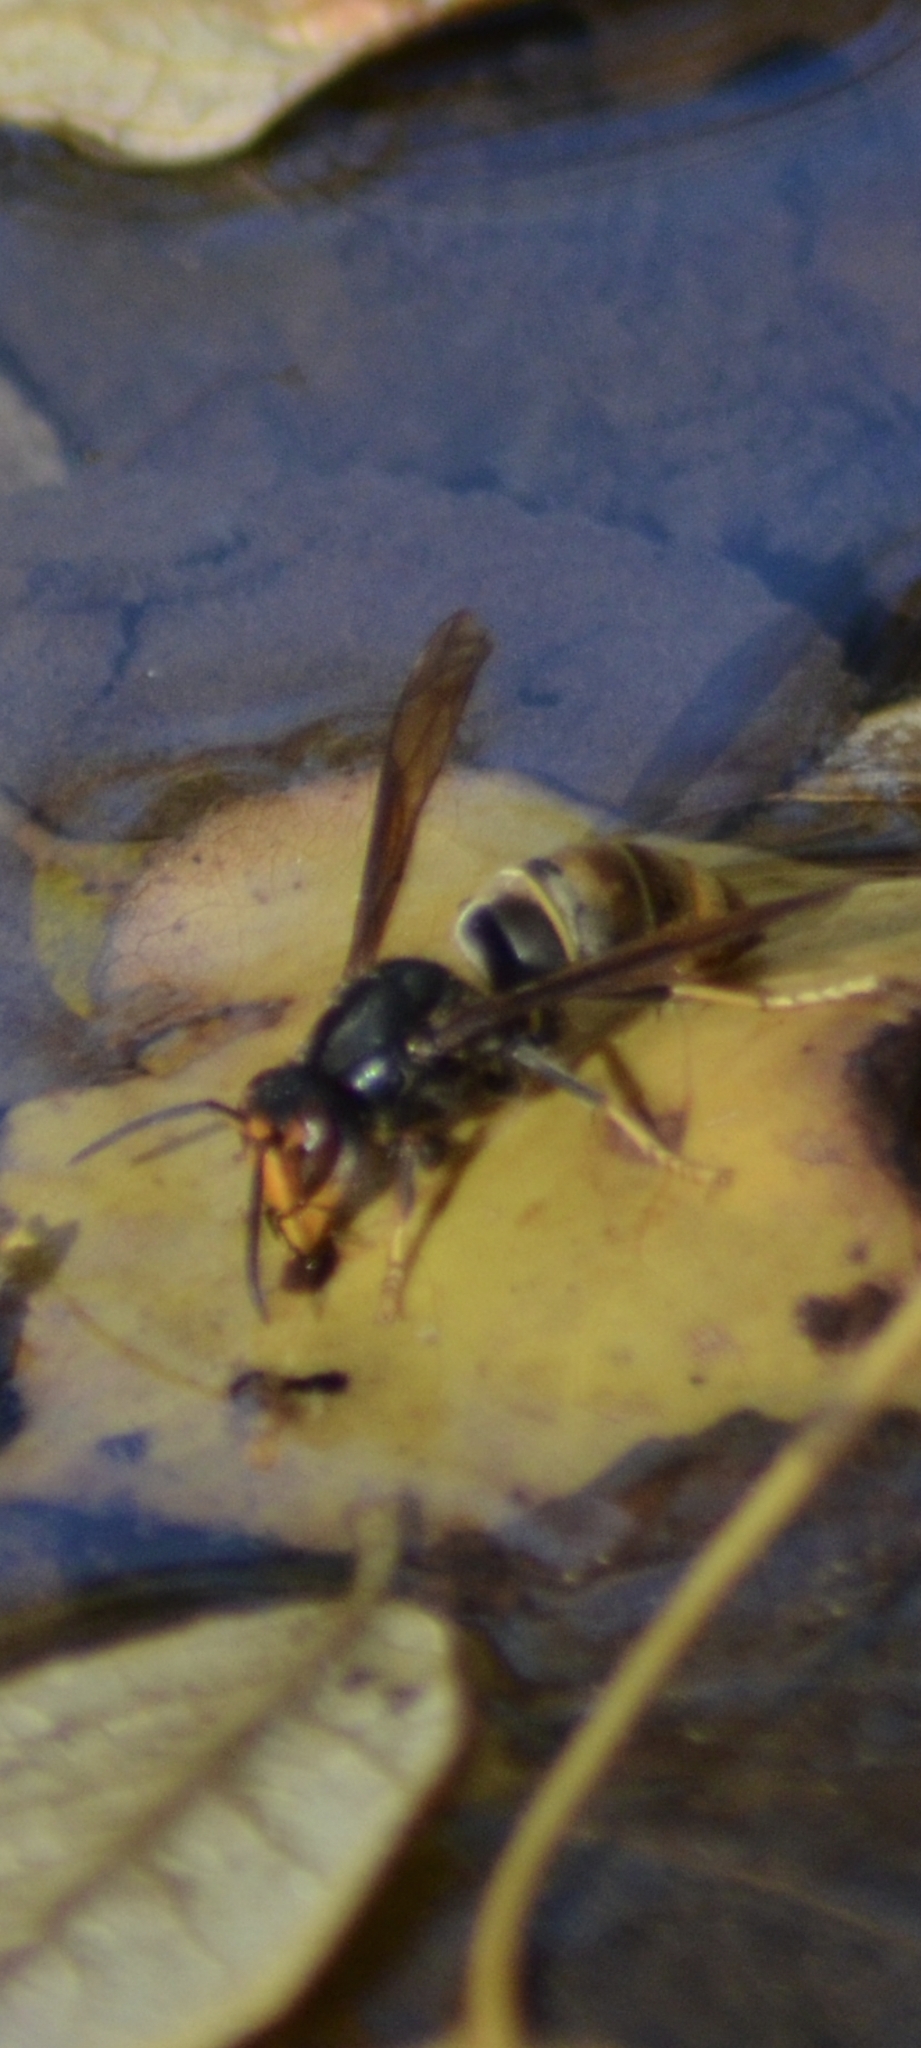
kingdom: Animalia
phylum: Arthropoda
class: Insecta
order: Hymenoptera
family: Vespidae
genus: Vespa
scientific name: Vespa velutina
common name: Asian hornet
